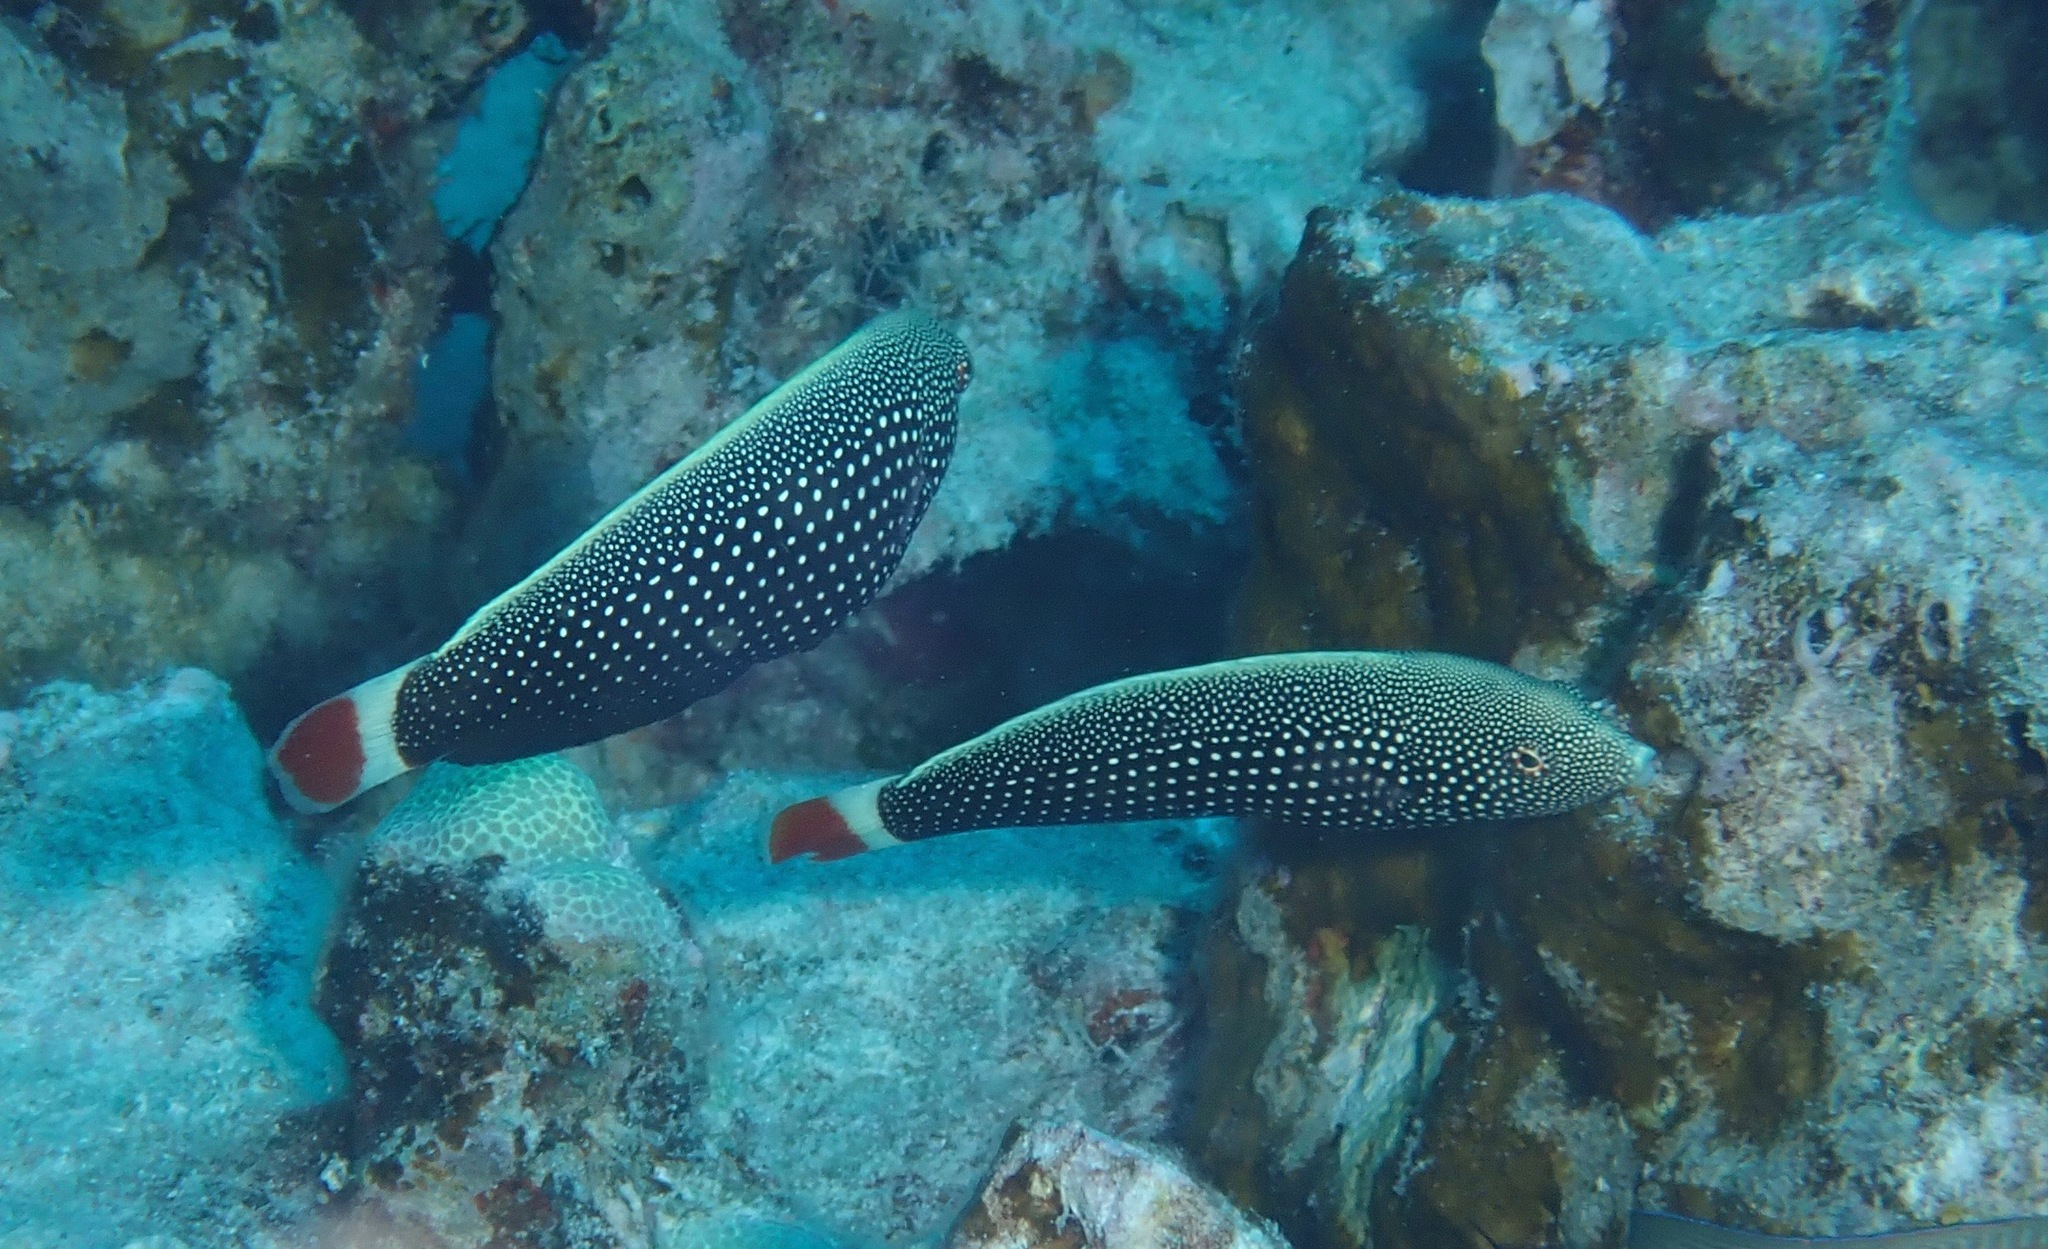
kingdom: Animalia
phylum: Chordata
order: Perciformes
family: Labridae
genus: Anampses
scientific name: Anampses chrysocephalus
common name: Psychedelic wrasse
